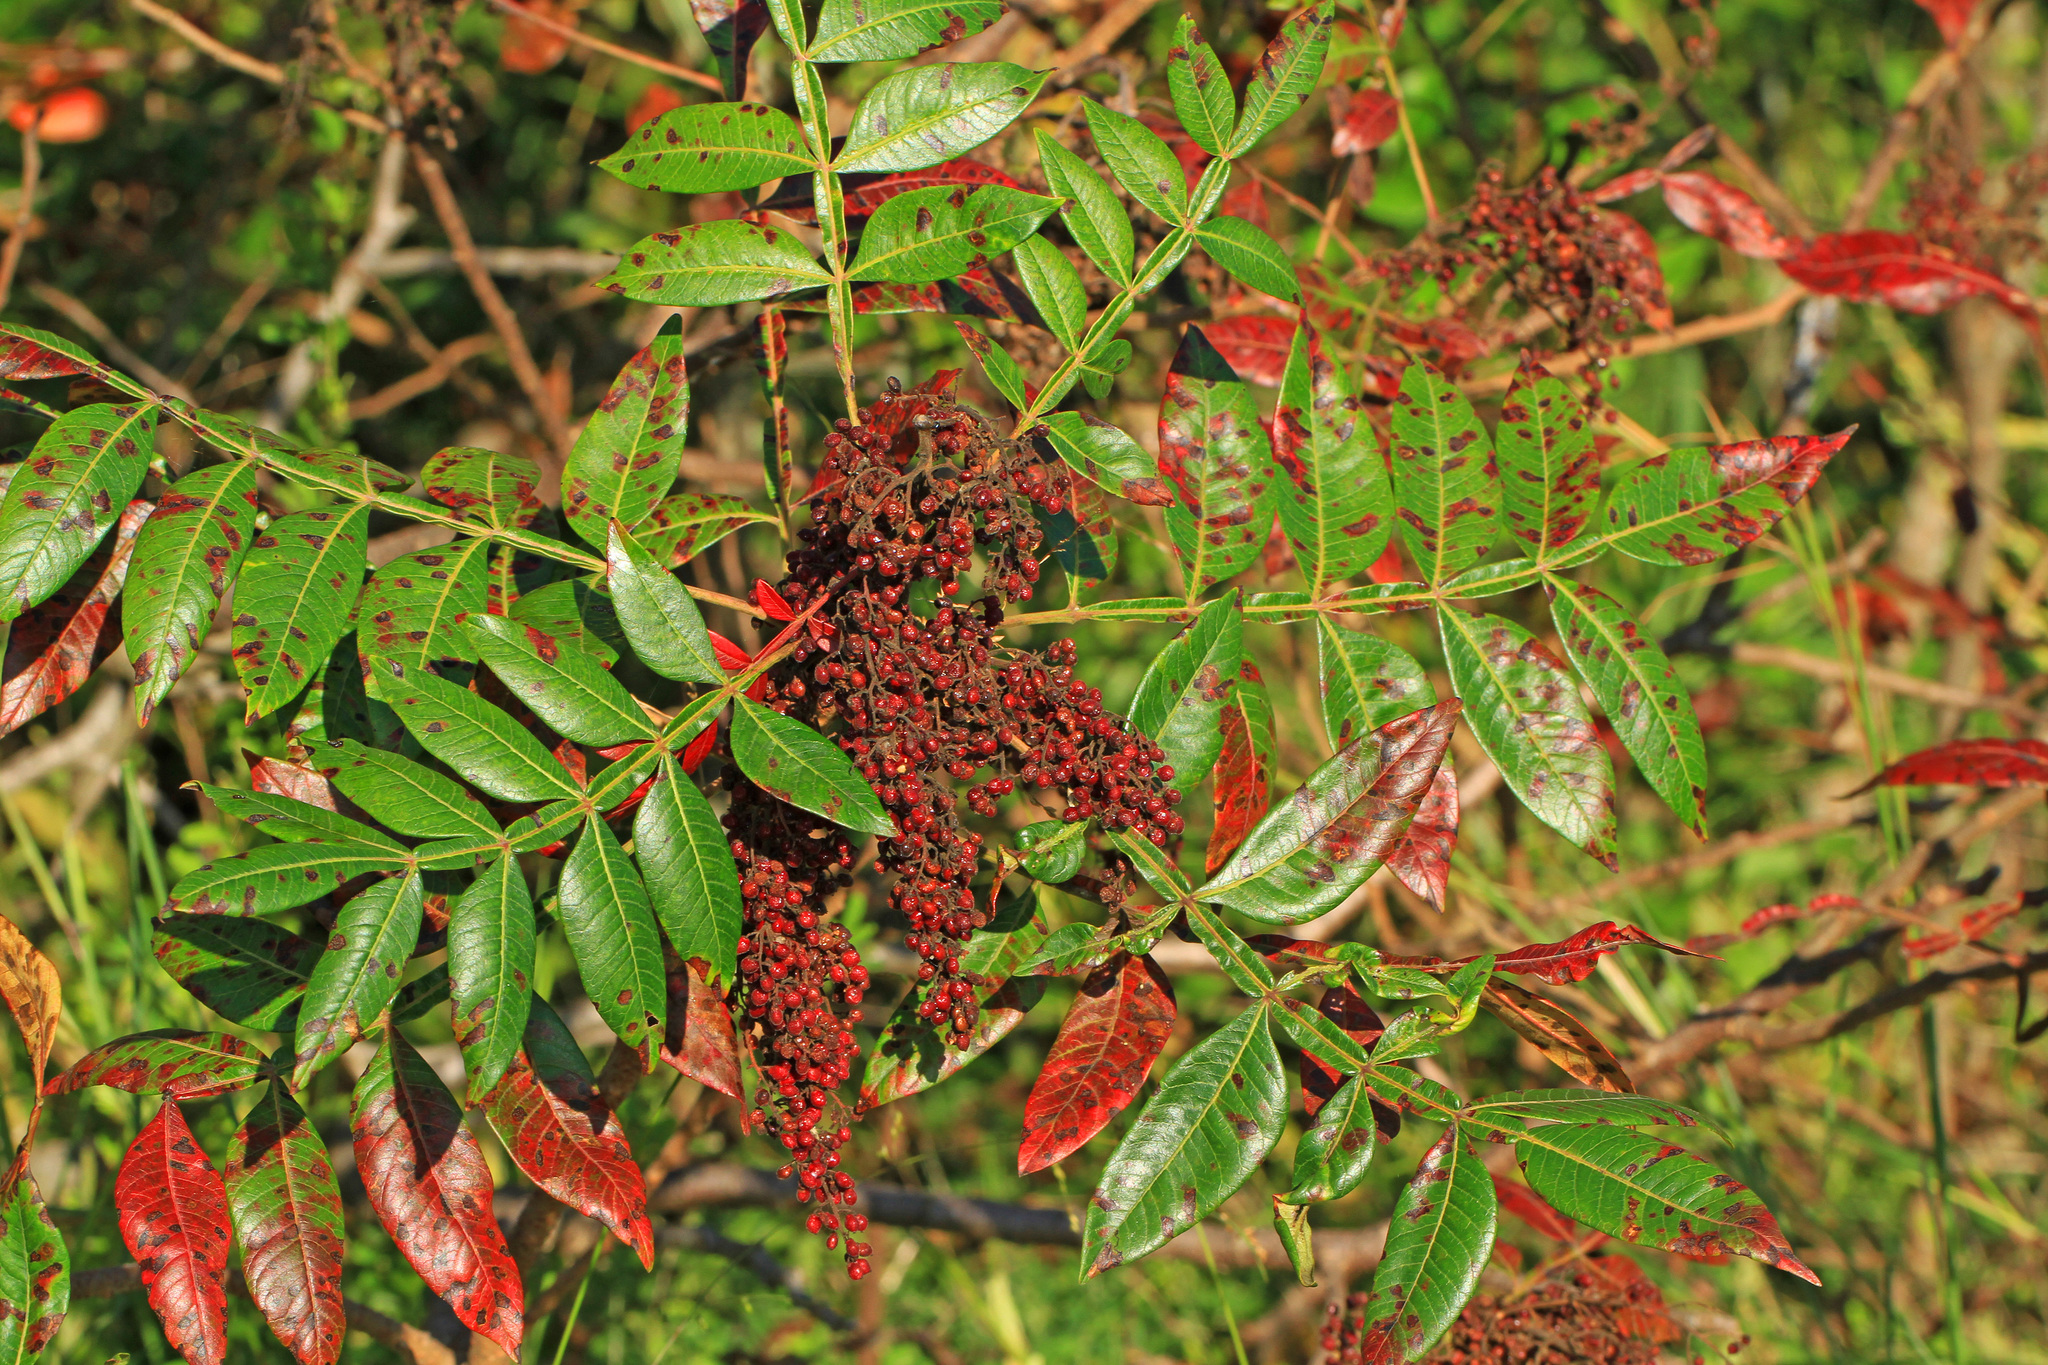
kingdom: Plantae
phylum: Tracheophyta
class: Magnoliopsida
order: Sapindales
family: Anacardiaceae
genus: Rhus
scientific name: Rhus copallina
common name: Shining sumac
